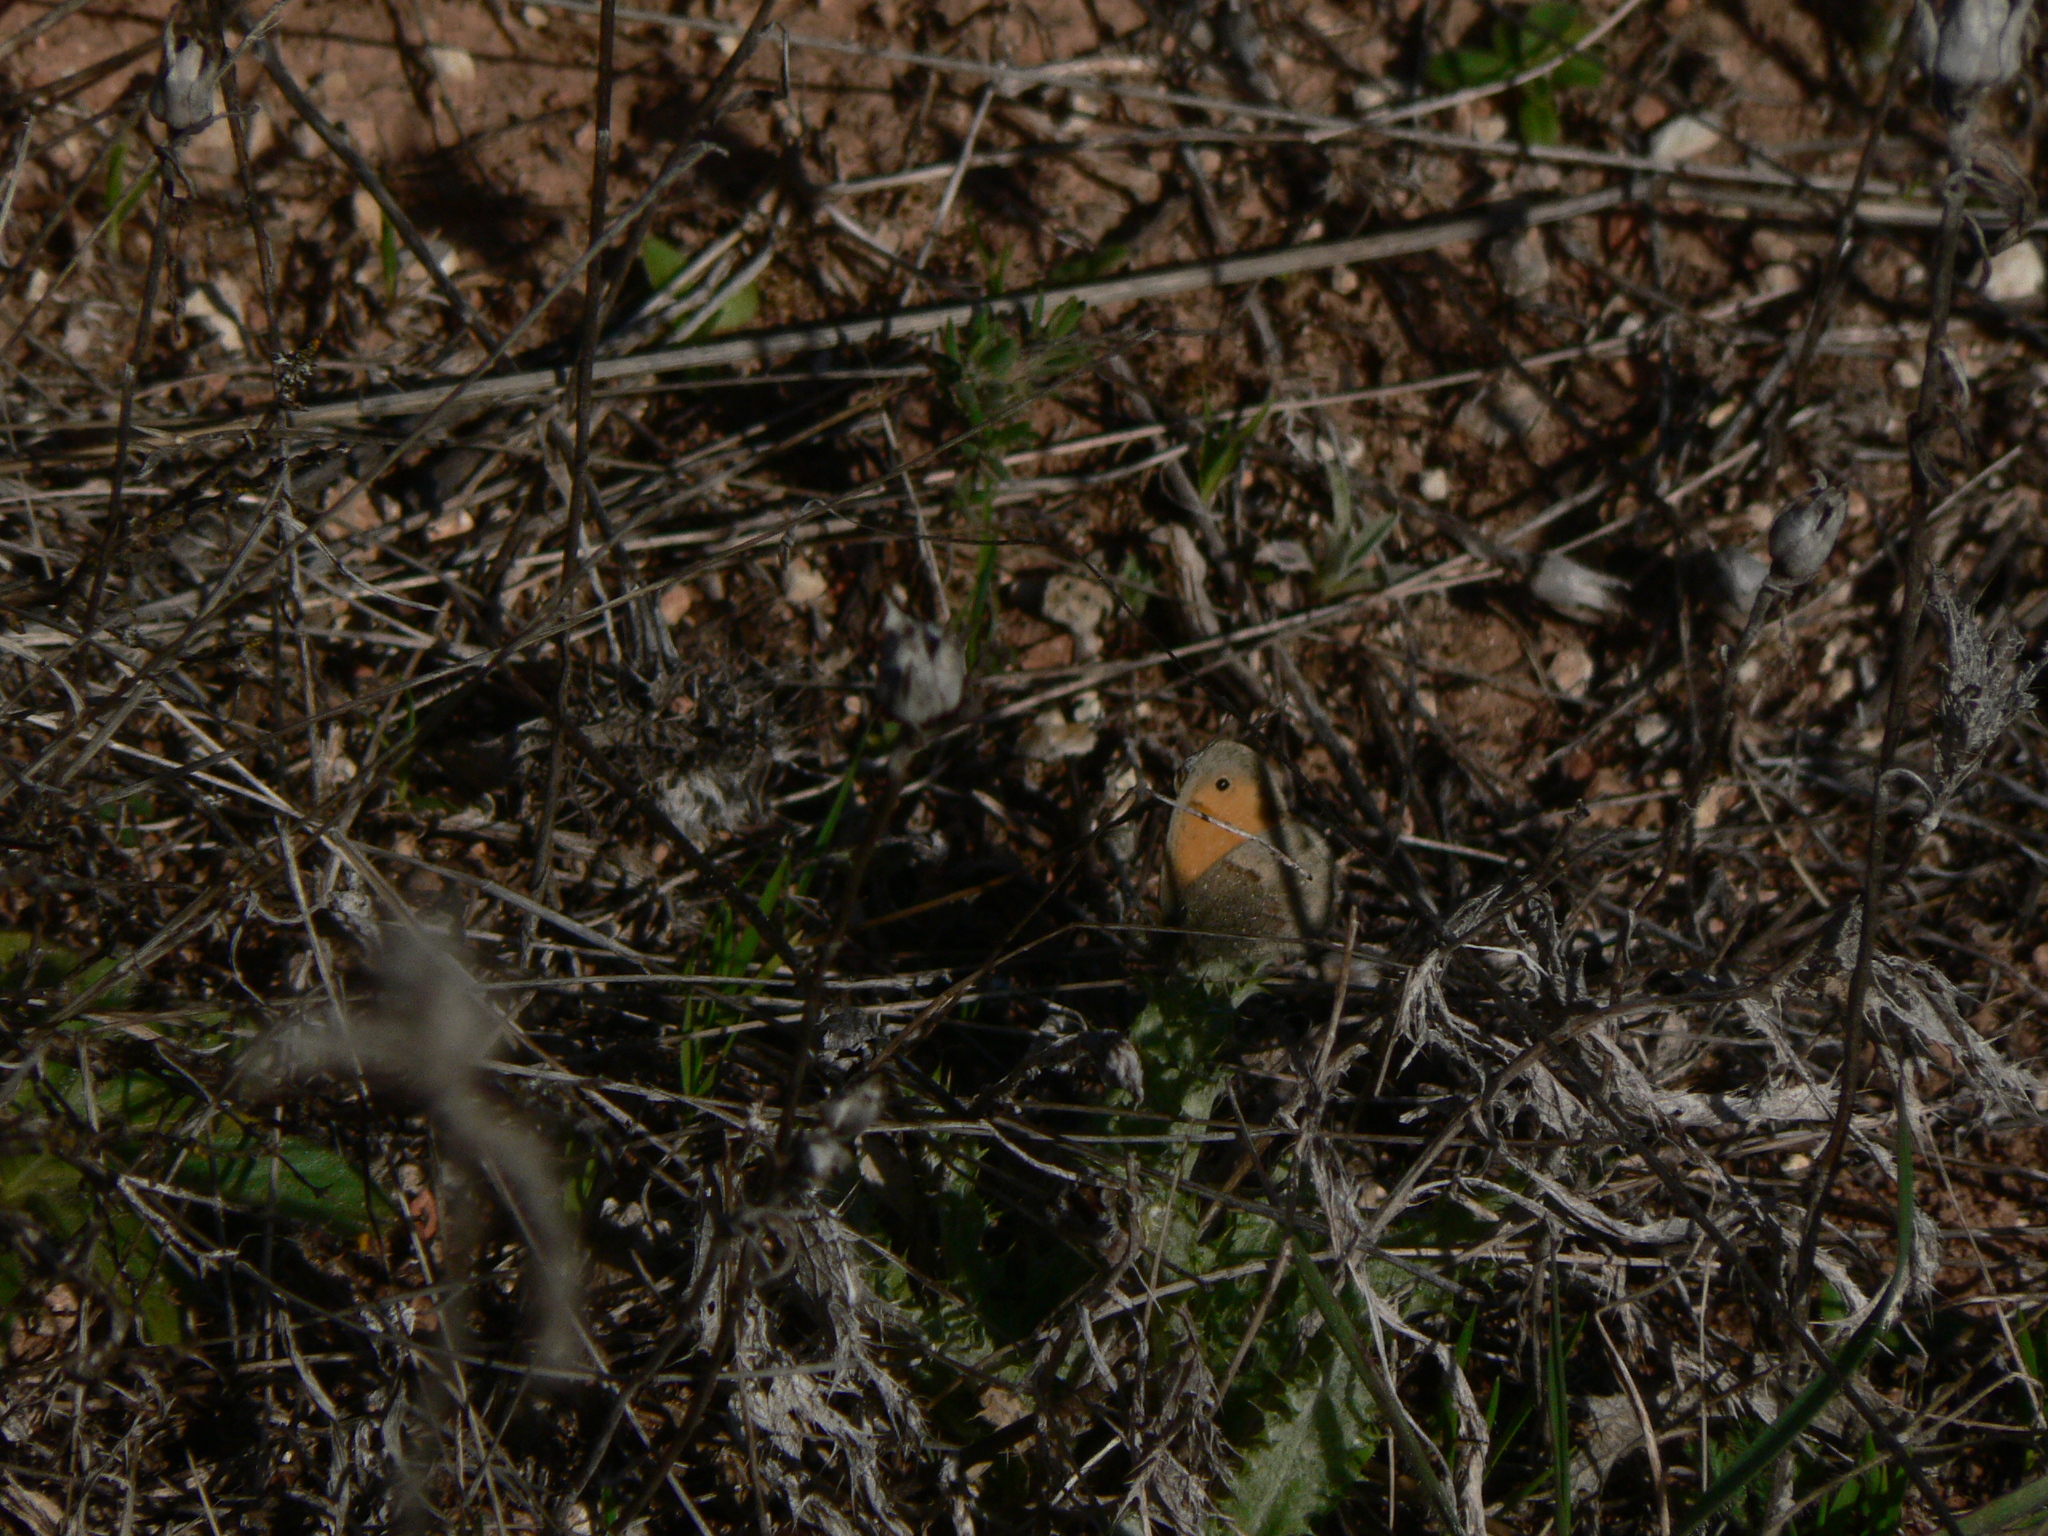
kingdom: Animalia
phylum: Arthropoda
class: Insecta
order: Lepidoptera
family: Nymphalidae
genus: Coenonympha
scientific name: Coenonympha pamphilus
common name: Small heath
